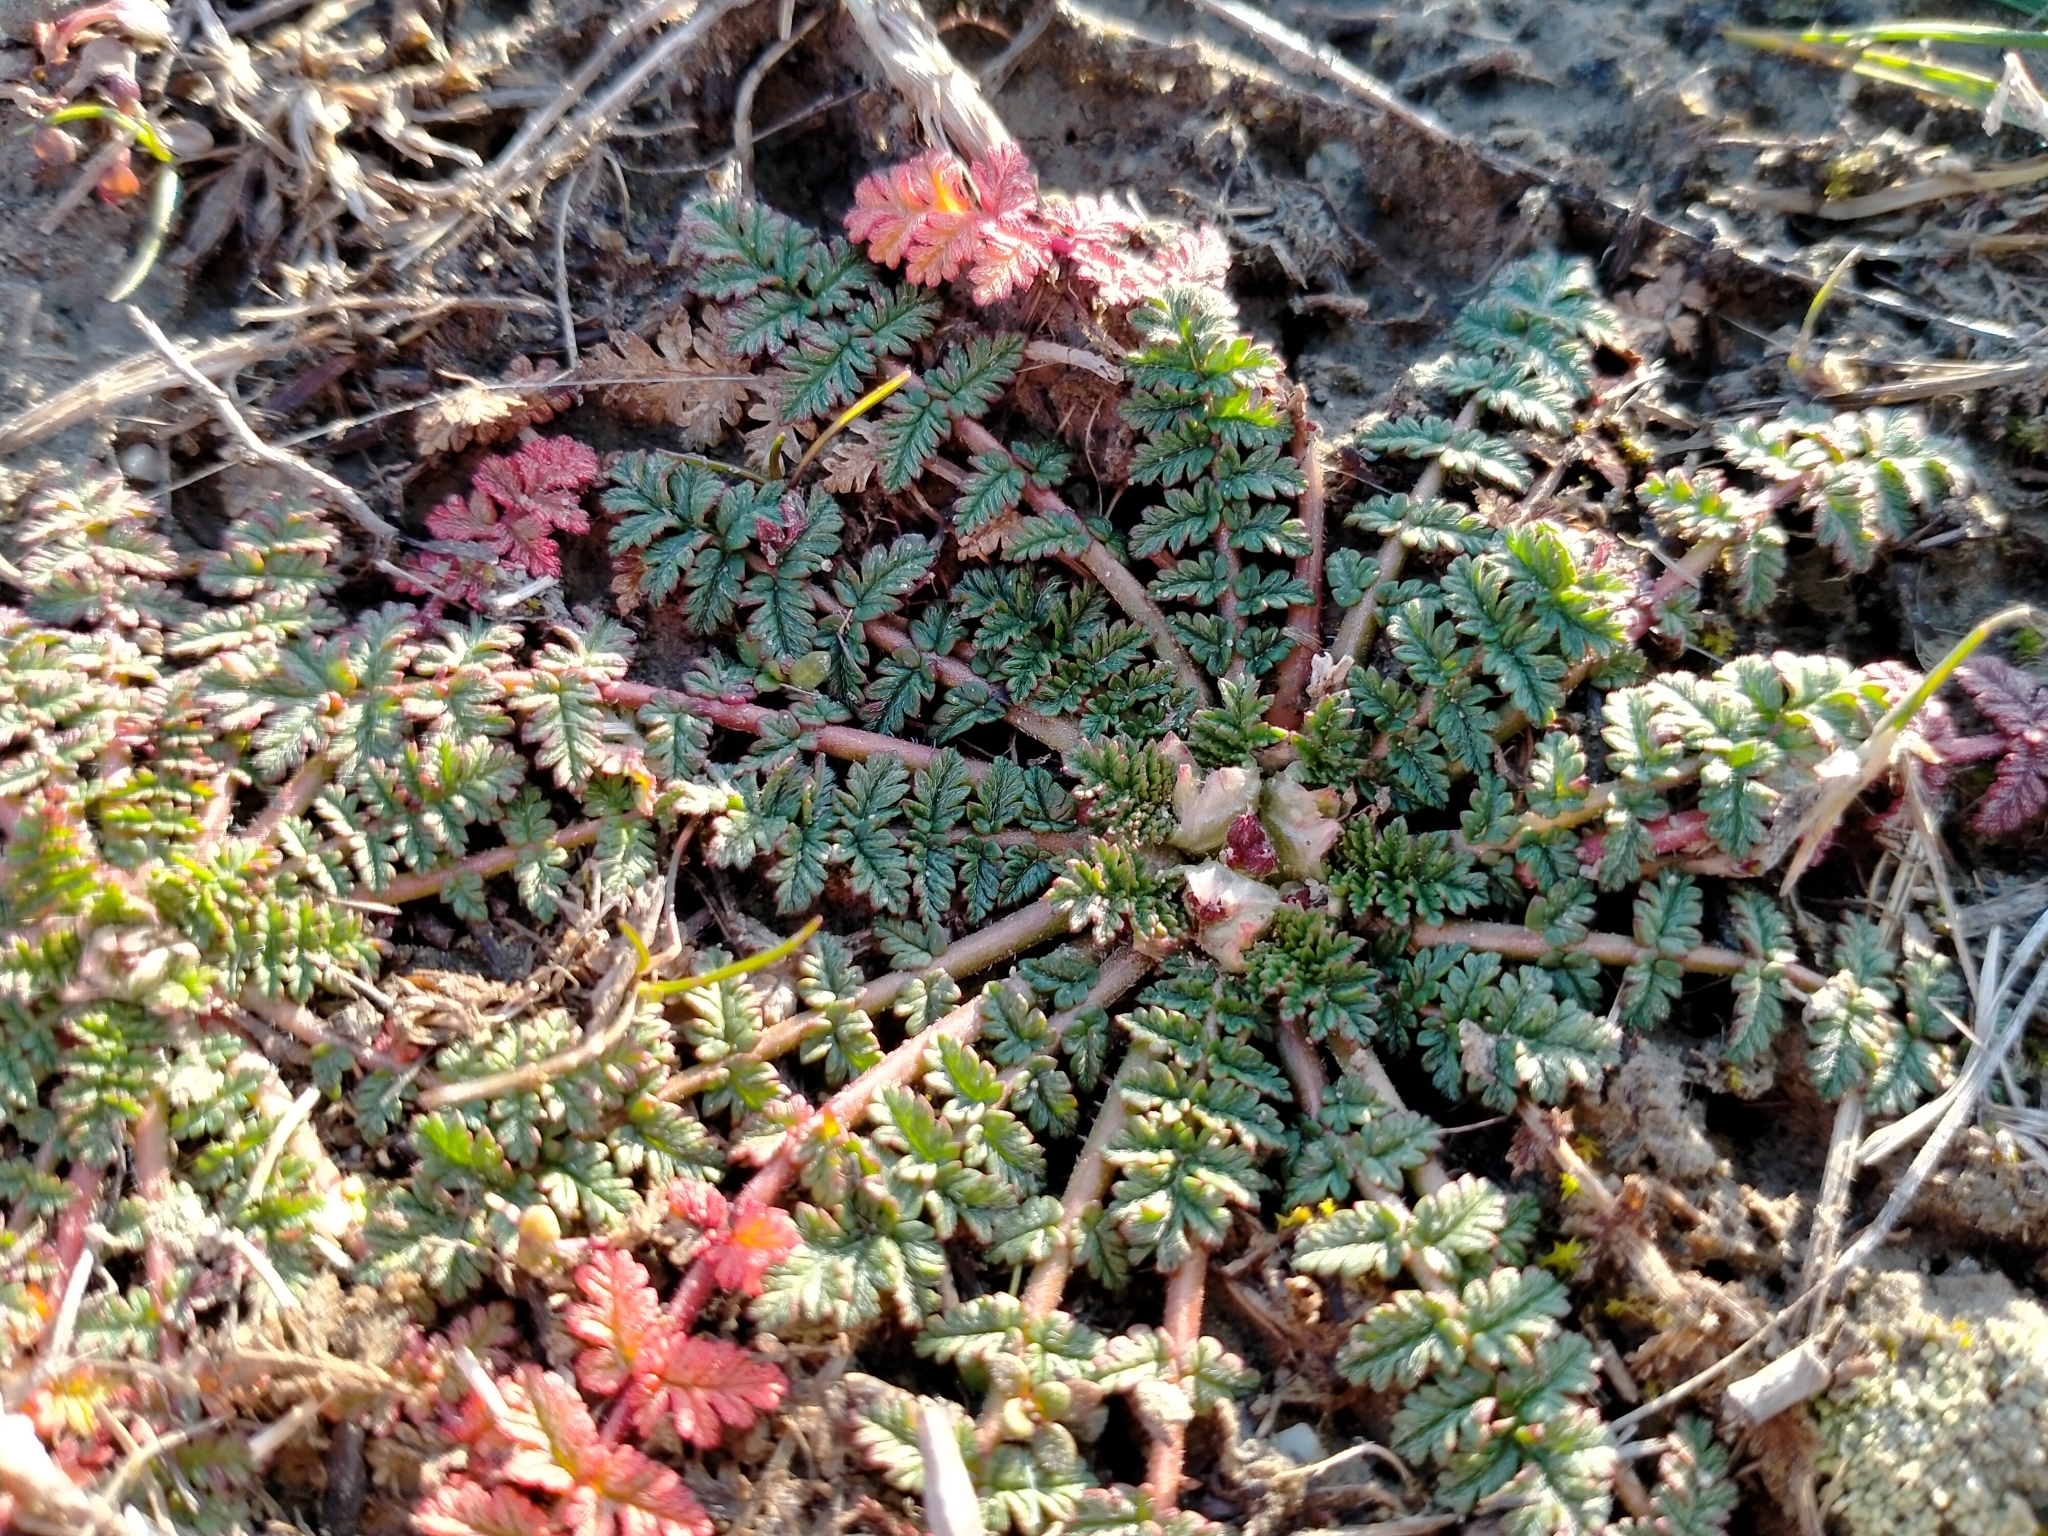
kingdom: Plantae
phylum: Tracheophyta
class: Magnoliopsida
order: Geraniales
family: Geraniaceae
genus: Erodium
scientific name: Erodium cicutarium
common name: Common stork's-bill
